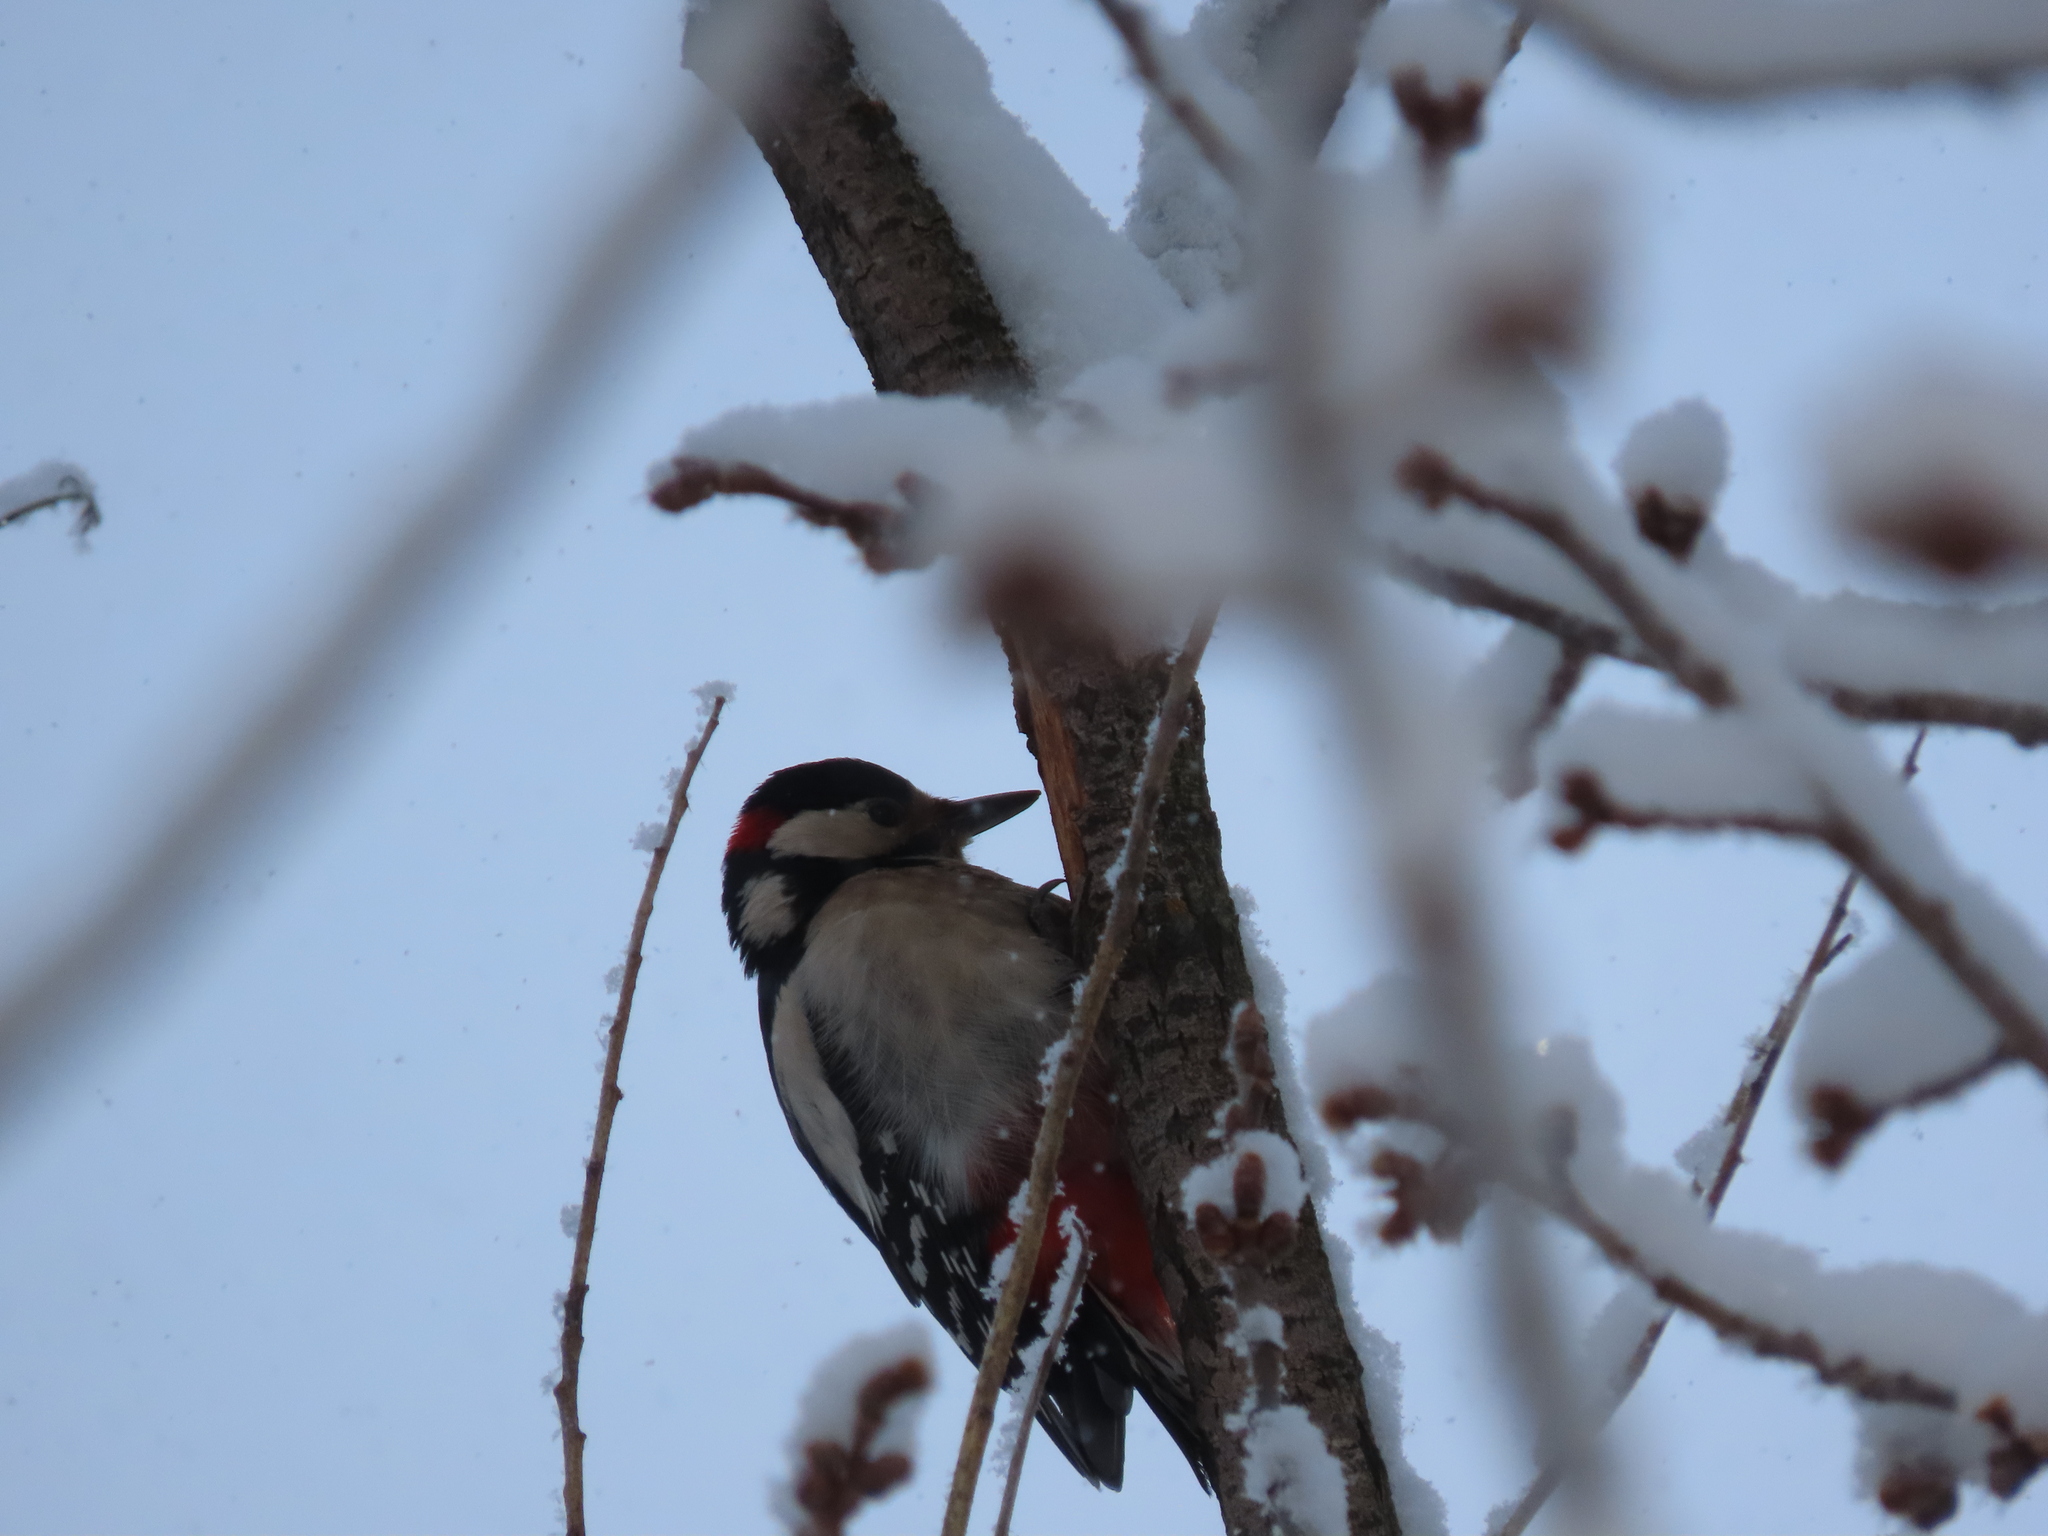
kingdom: Animalia
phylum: Chordata
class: Aves
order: Piciformes
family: Picidae
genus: Dendrocopos
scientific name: Dendrocopos major
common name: Great spotted woodpecker
